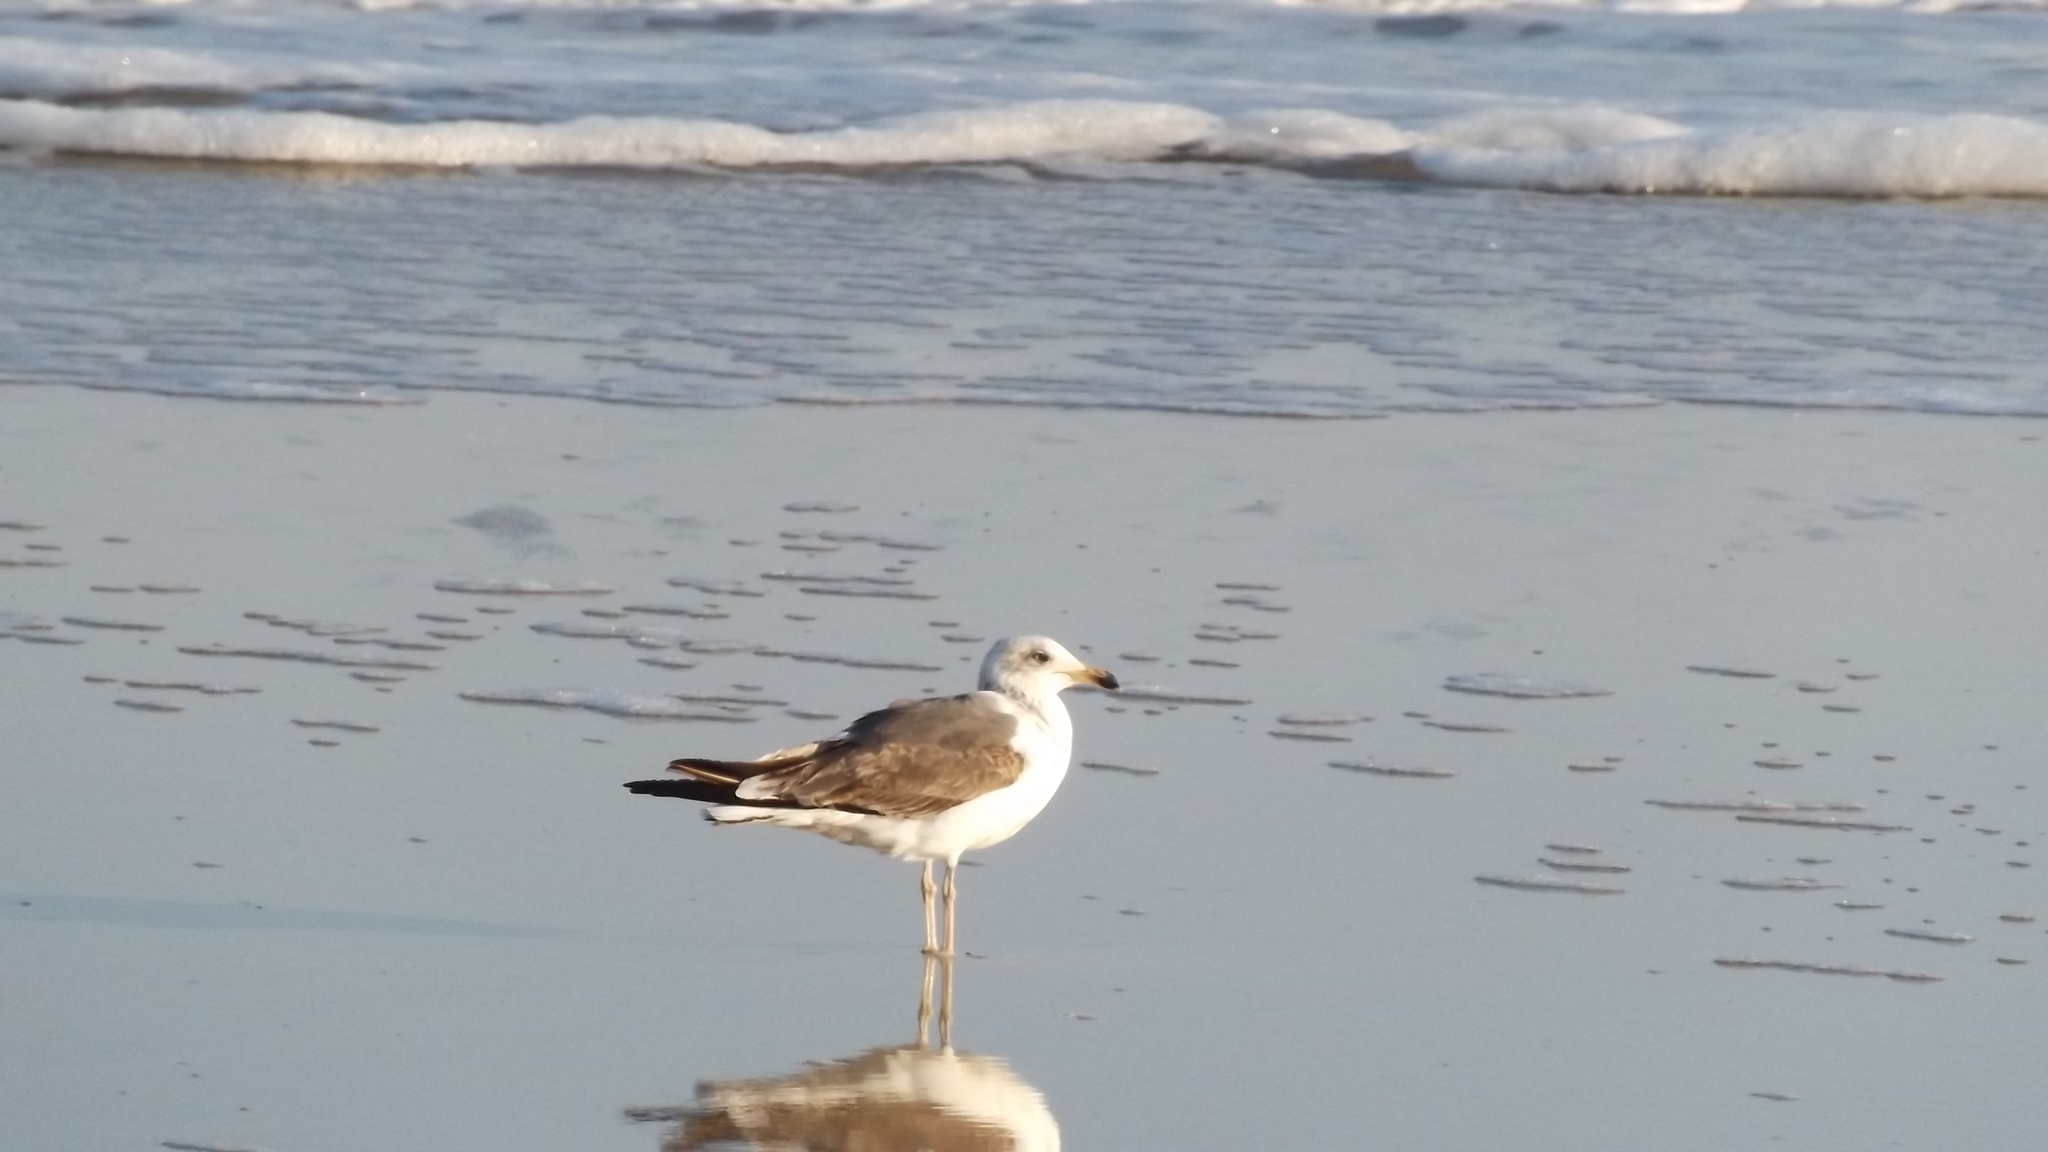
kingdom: Animalia
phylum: Chordata
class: Aves
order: Charadriiformes
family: Laridae
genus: Larus
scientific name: Larus fuscus
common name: Lesser black-backed gull
